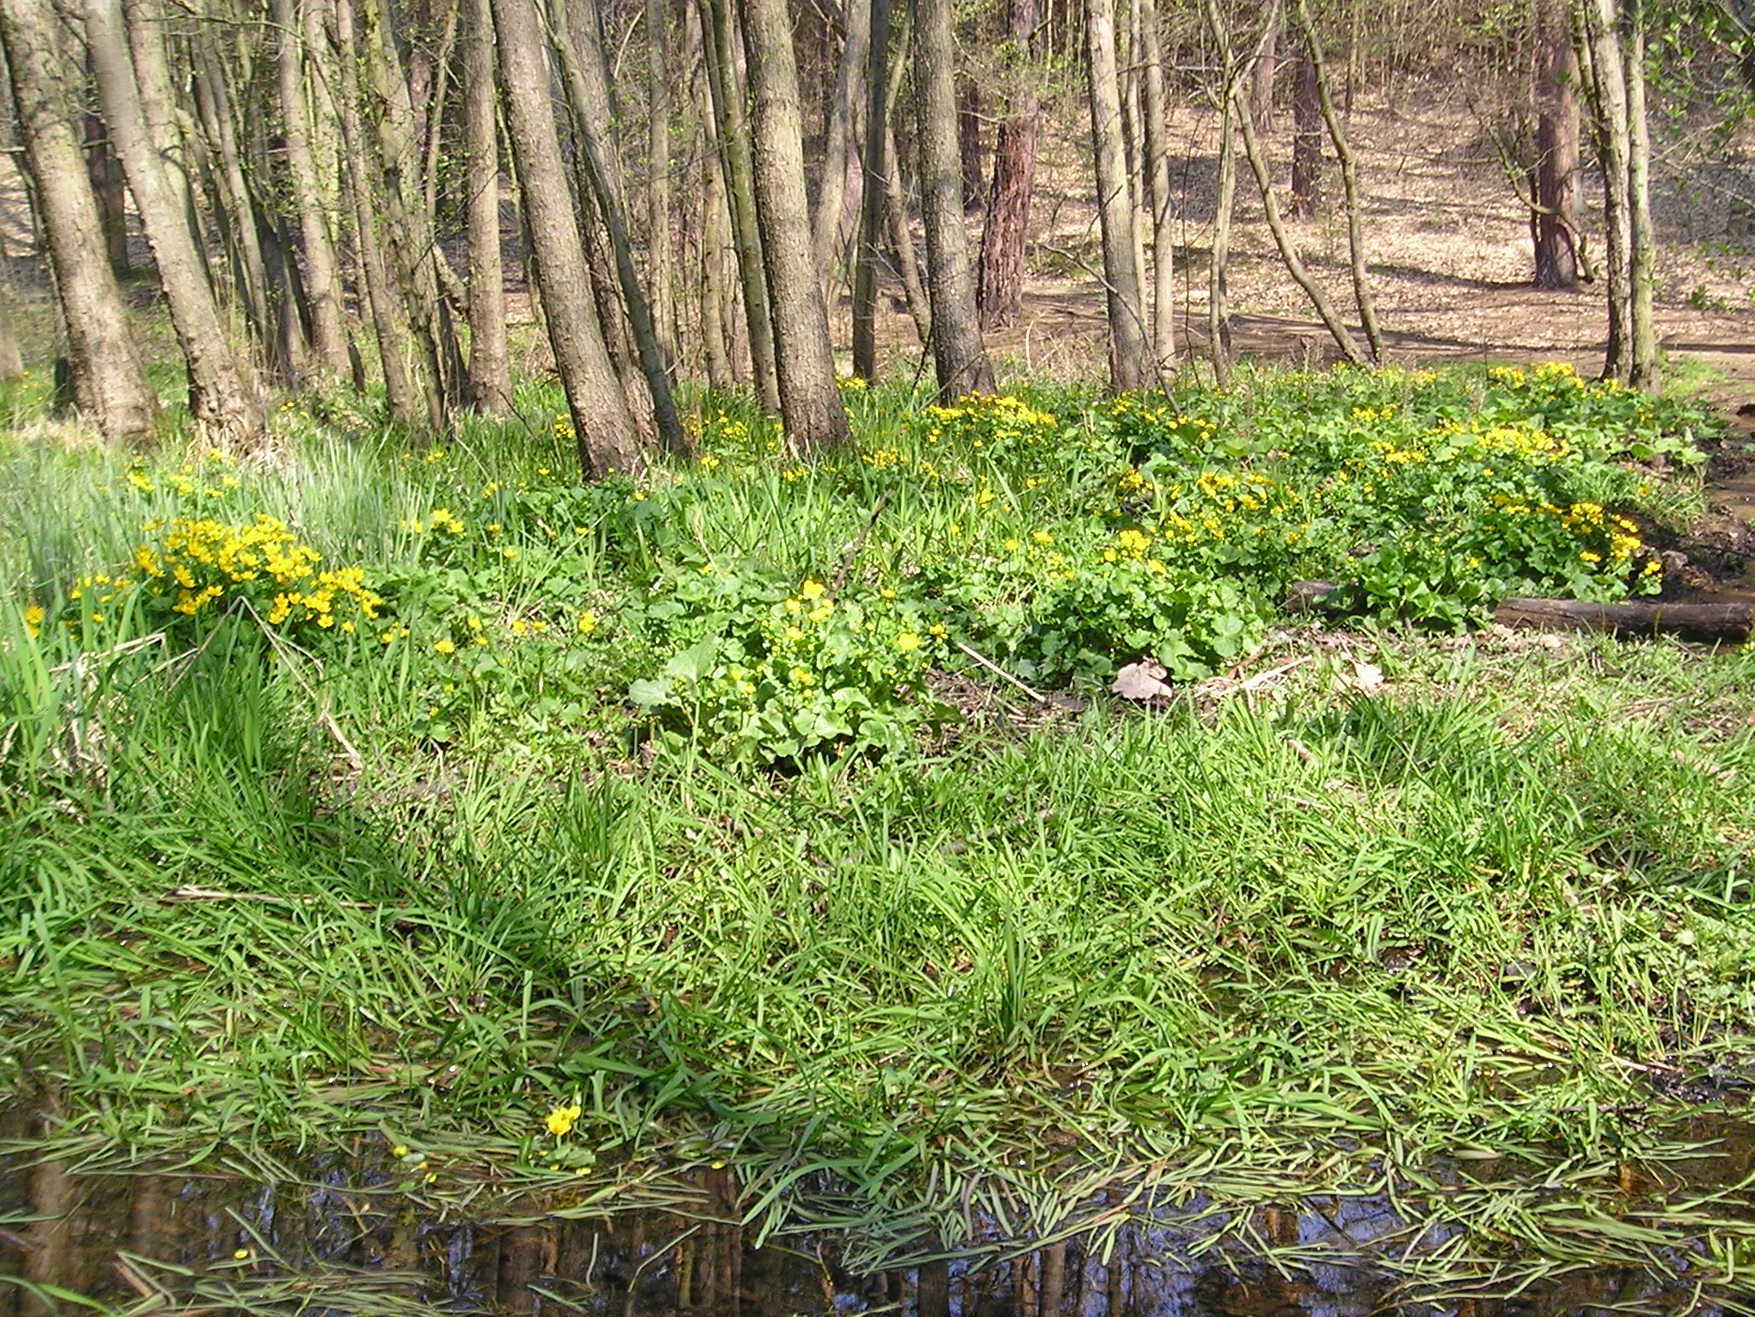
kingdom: Plantae
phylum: Tracheophyta
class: Magnoliopsida
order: Ranunculales
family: Ranunculaceae
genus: Caltha
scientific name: Caltha palustris
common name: Marsh marigold
